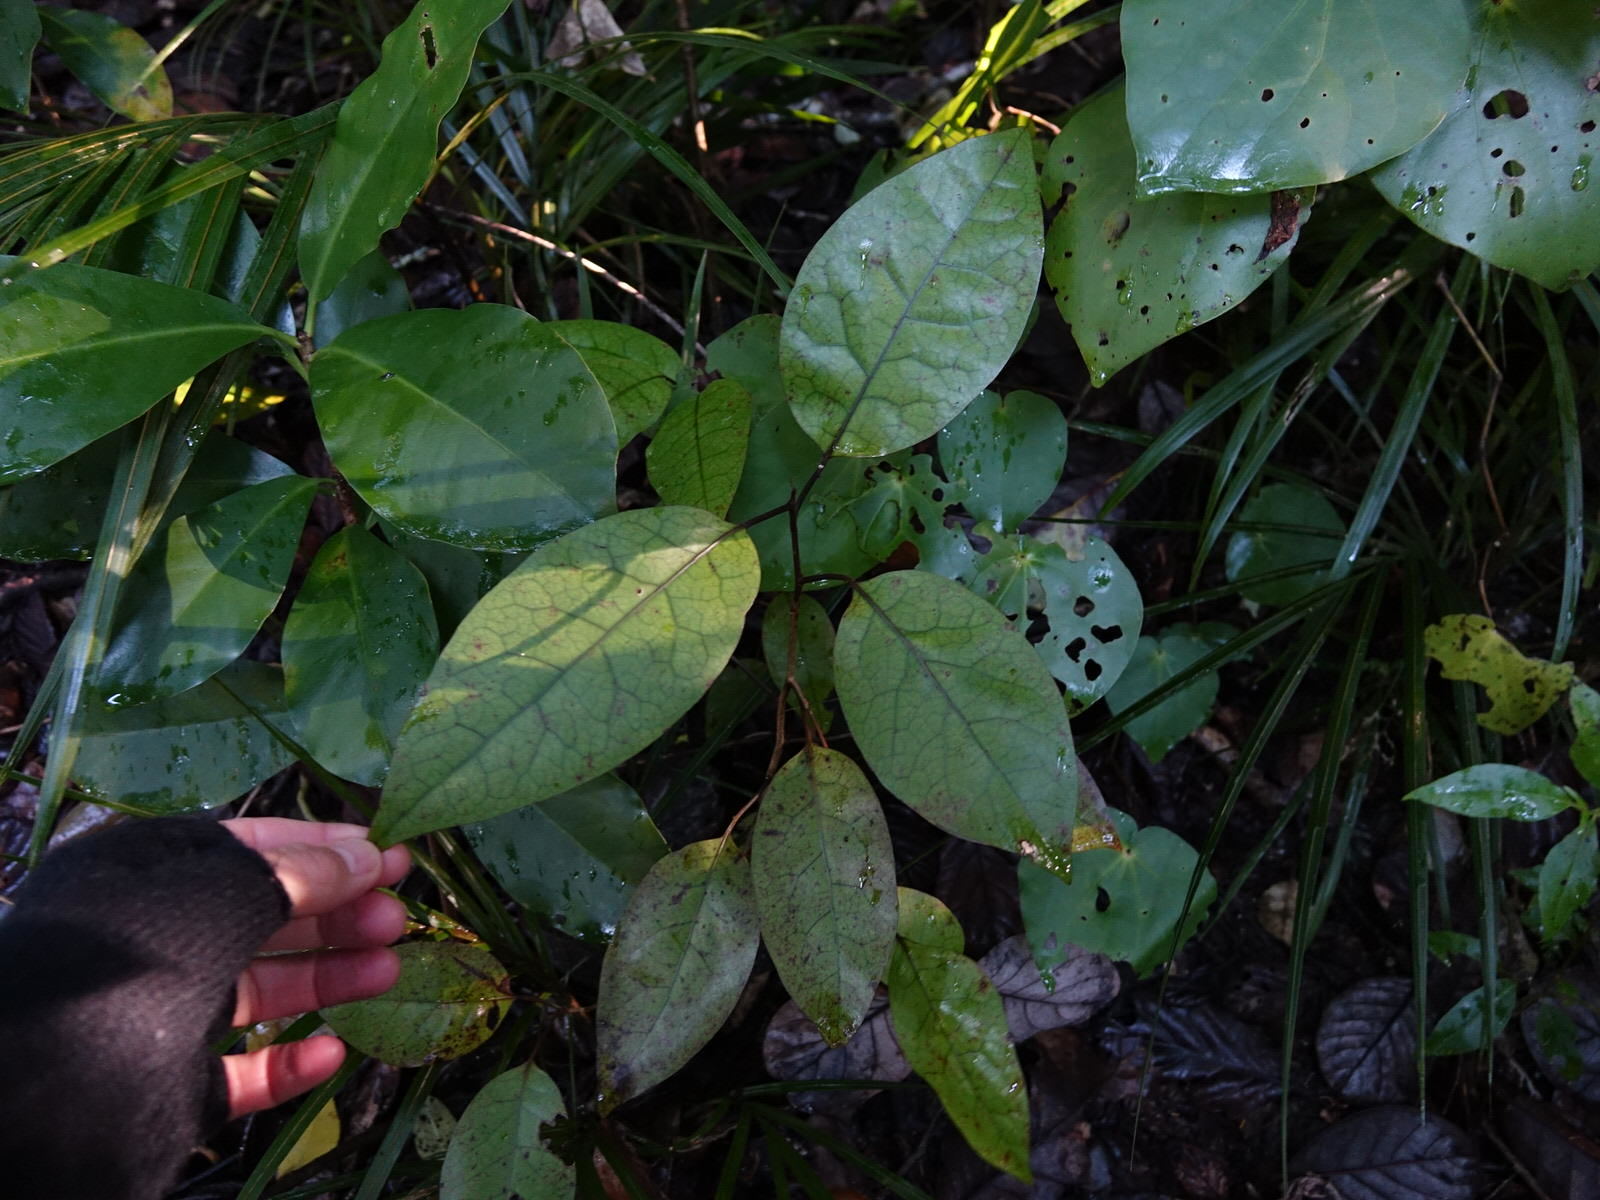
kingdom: Plantae
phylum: Tracheophyta
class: Magnoliopsida
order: Laurales
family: Lauraceae
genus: Litsea
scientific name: Litsea calicaris
